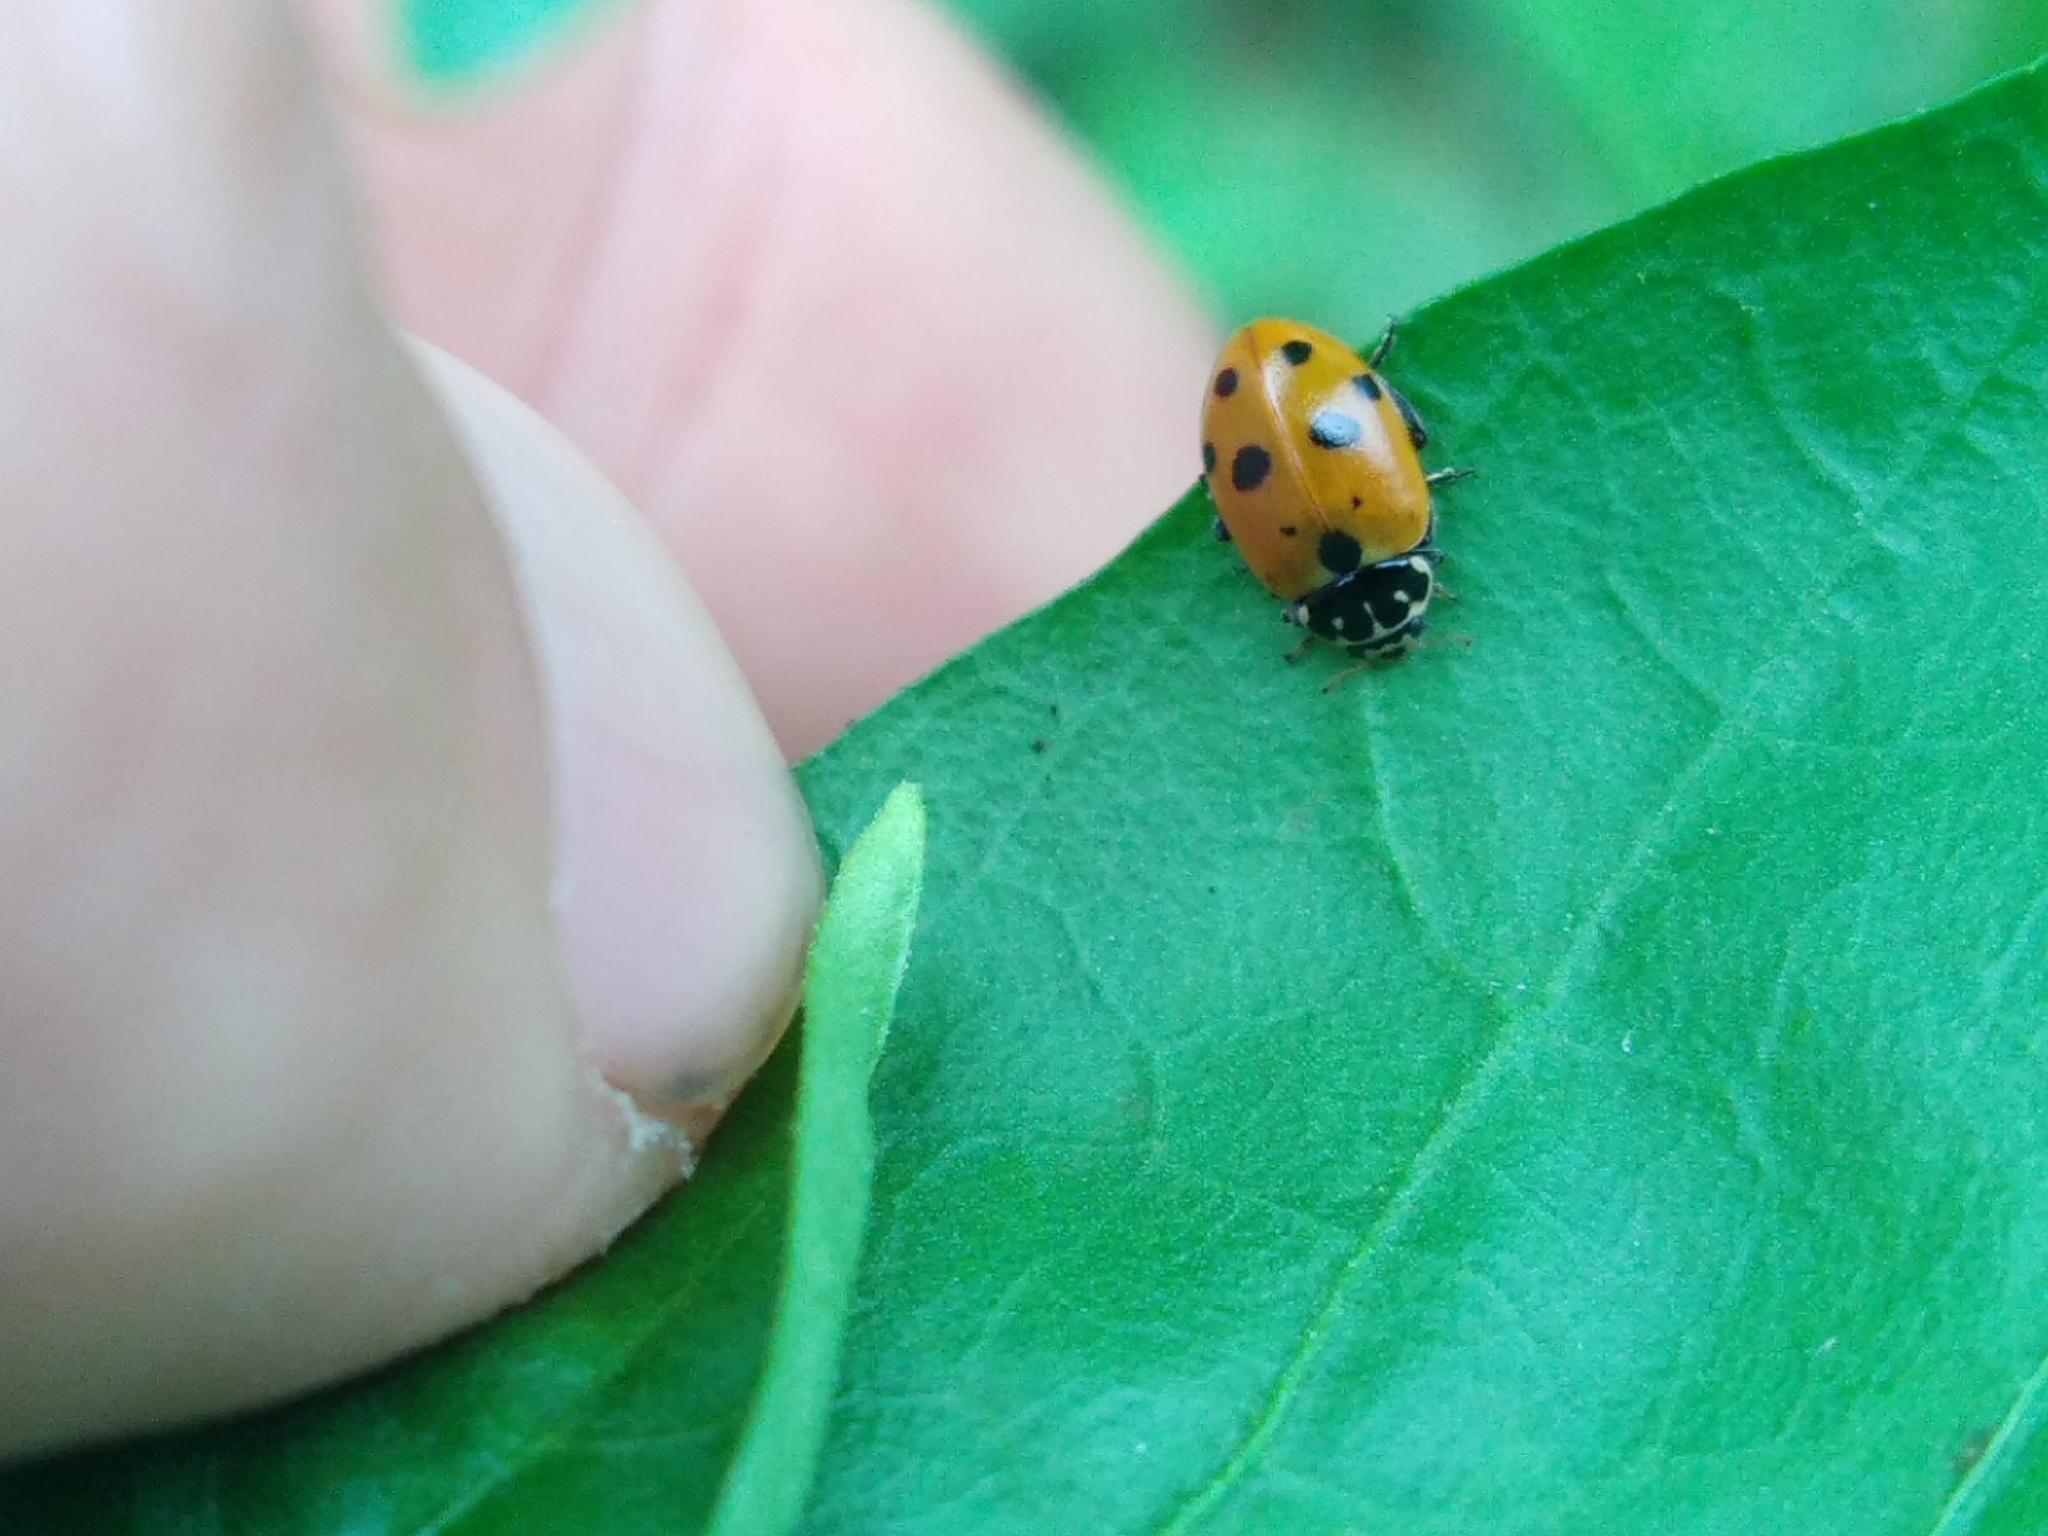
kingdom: Animalia
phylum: Arthropoda
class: Insecta
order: Coleoptera
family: Coccinellidae
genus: Hippodamia
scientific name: Hippodamia variegata
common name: Ladybird beetle
